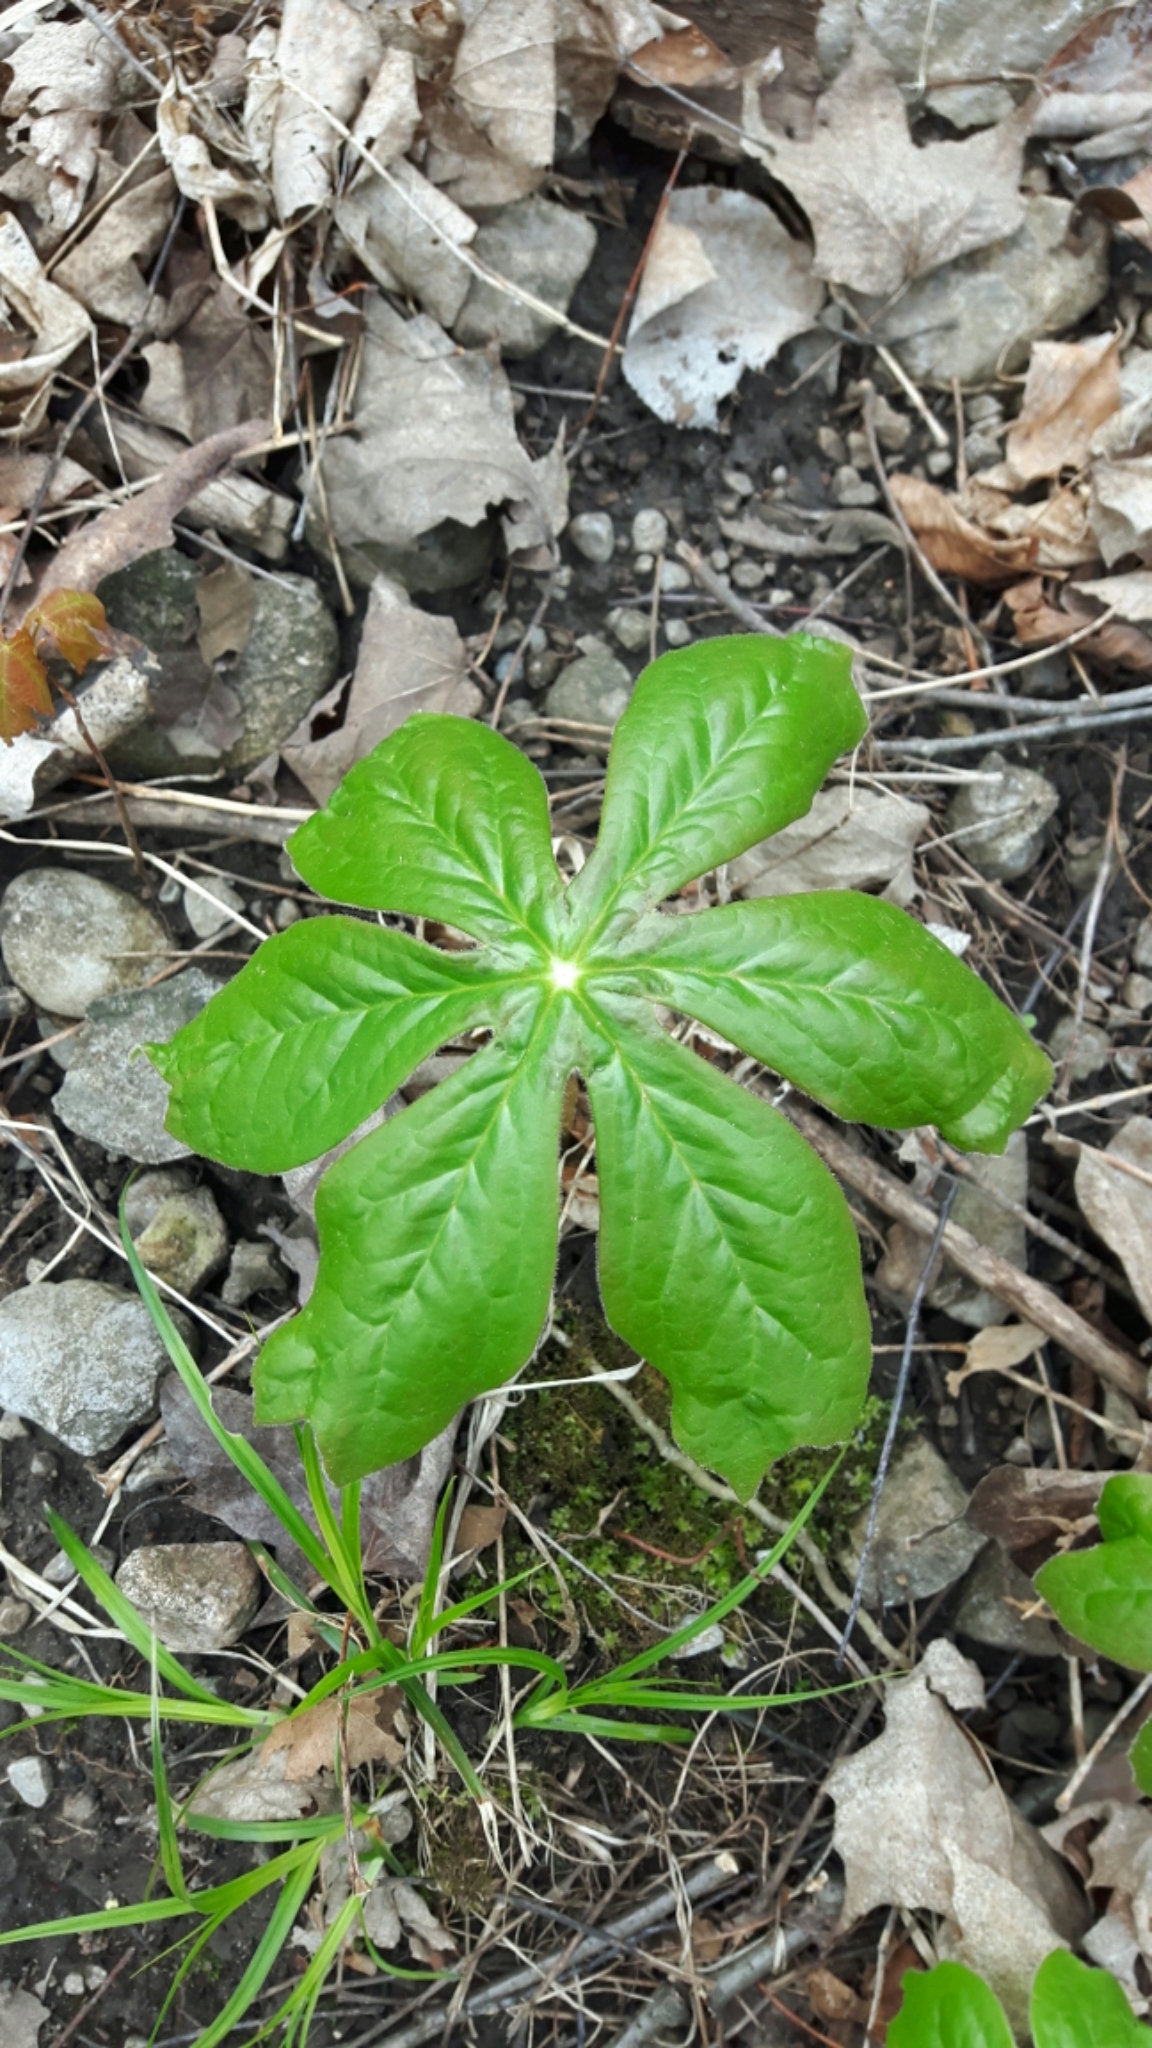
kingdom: Plantae
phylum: Tracheophyta
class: Magnoliopsida
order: Ranunculales
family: Berberidaceae
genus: Podophyllum
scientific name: Podophyllum peltatum
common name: Wild mandrake
